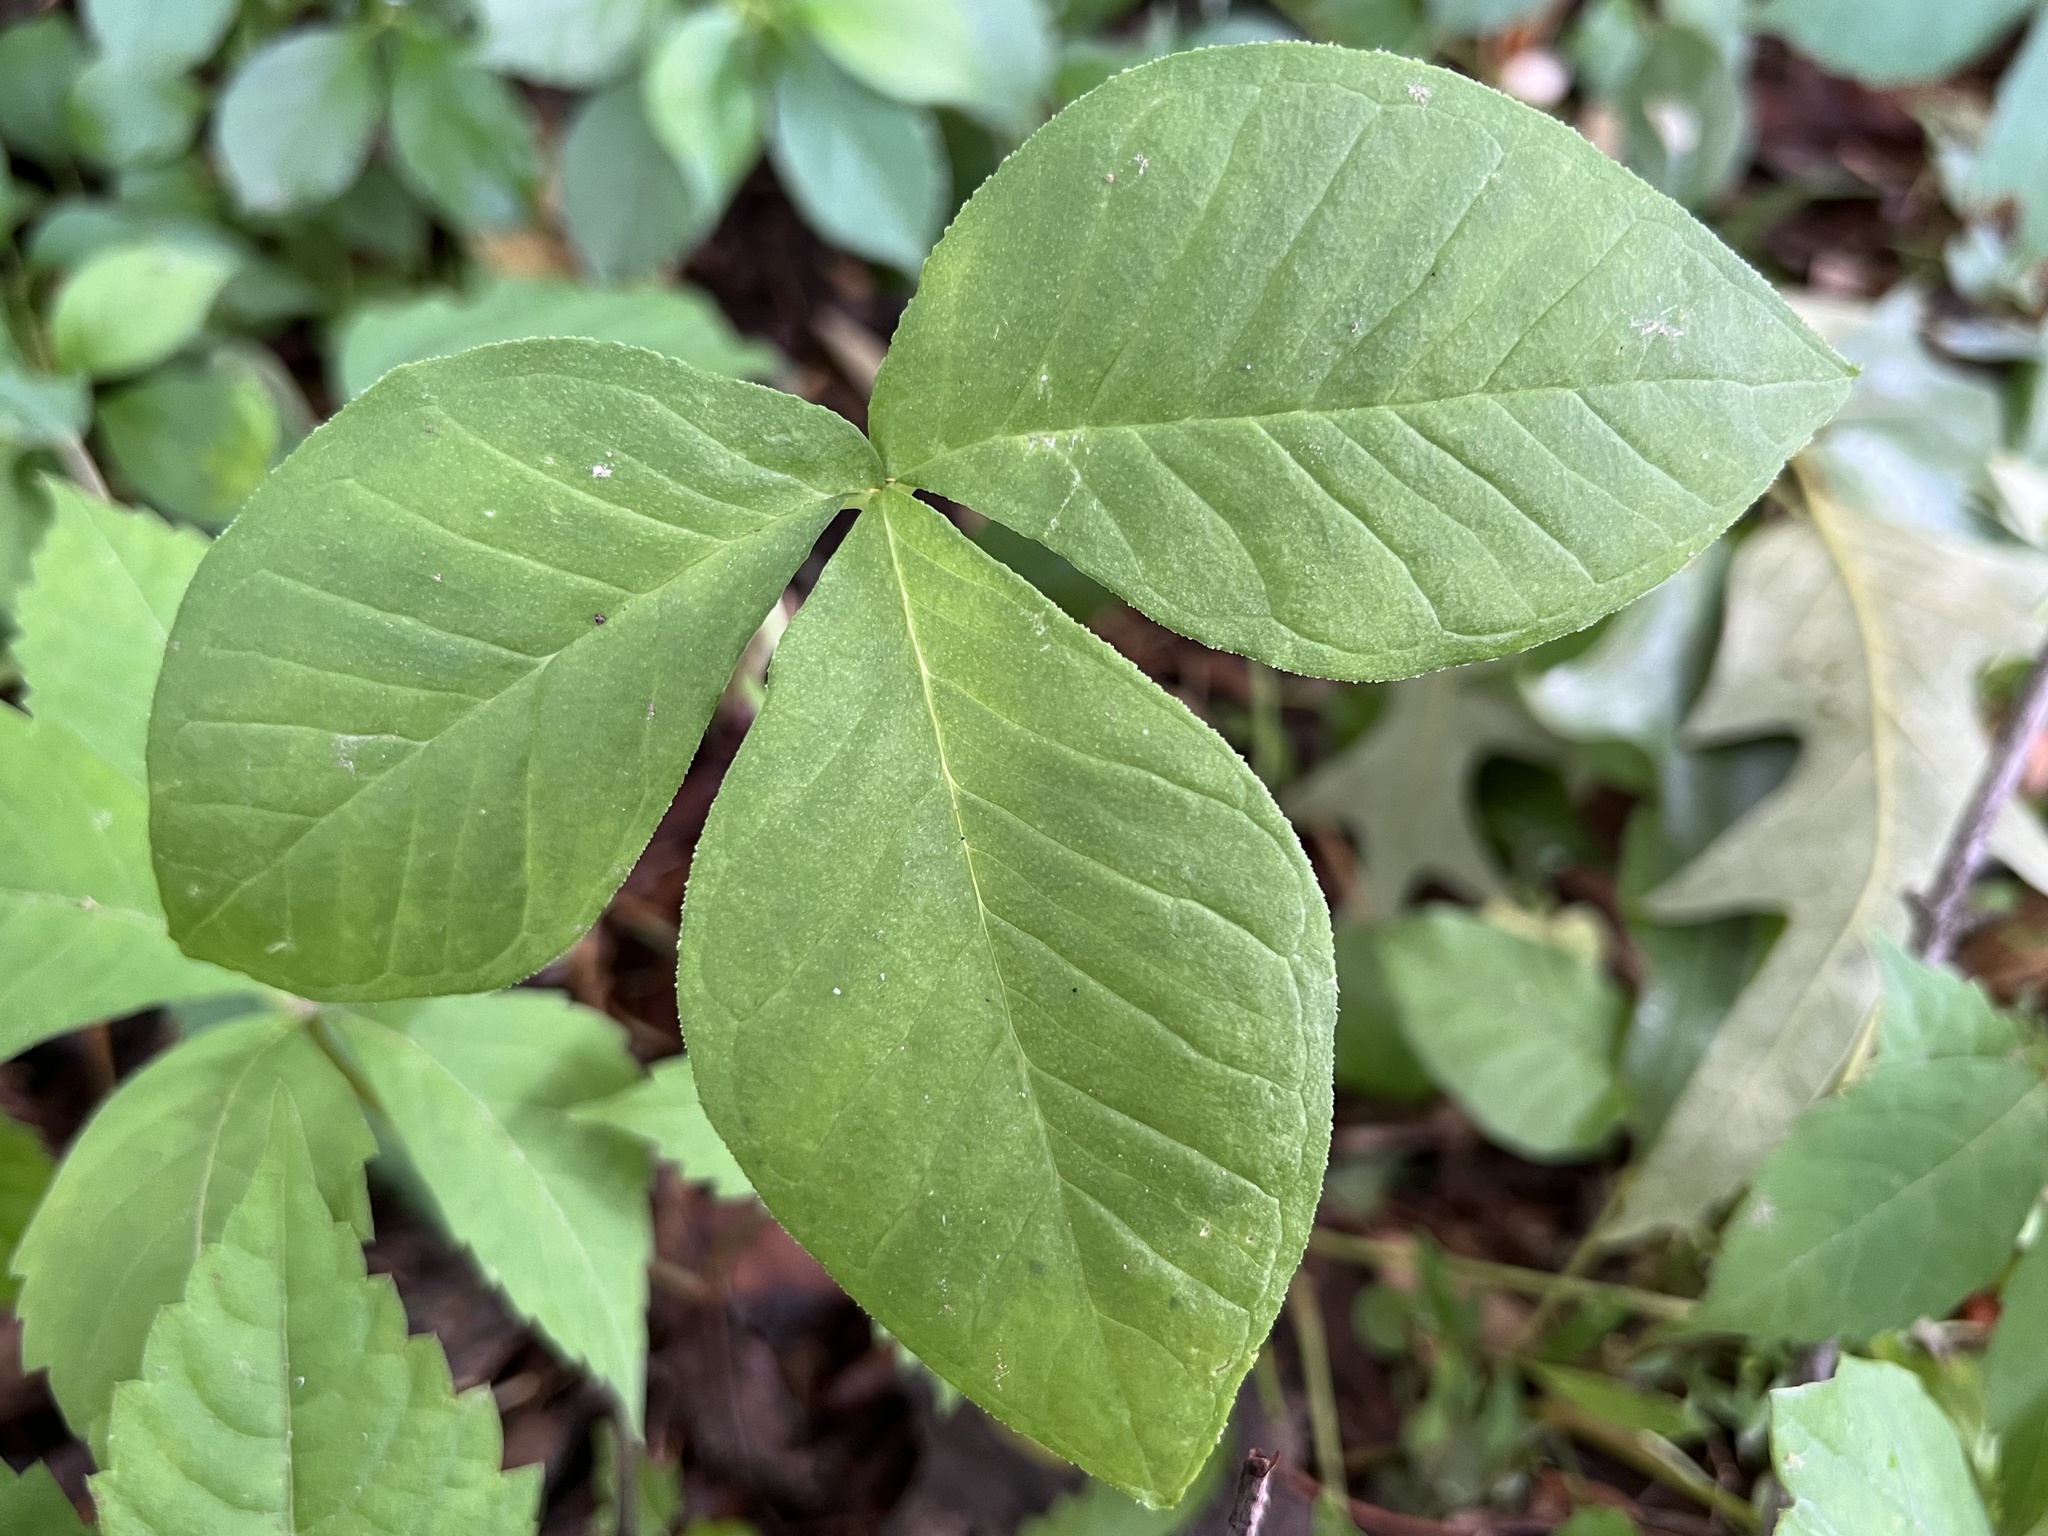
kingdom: Plantae
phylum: Tracheophyta
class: Liliopsida
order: Alismatales
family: Araceae
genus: Arisaema
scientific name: Arisaema triphyllum
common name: Jack-in-the-pulpit
